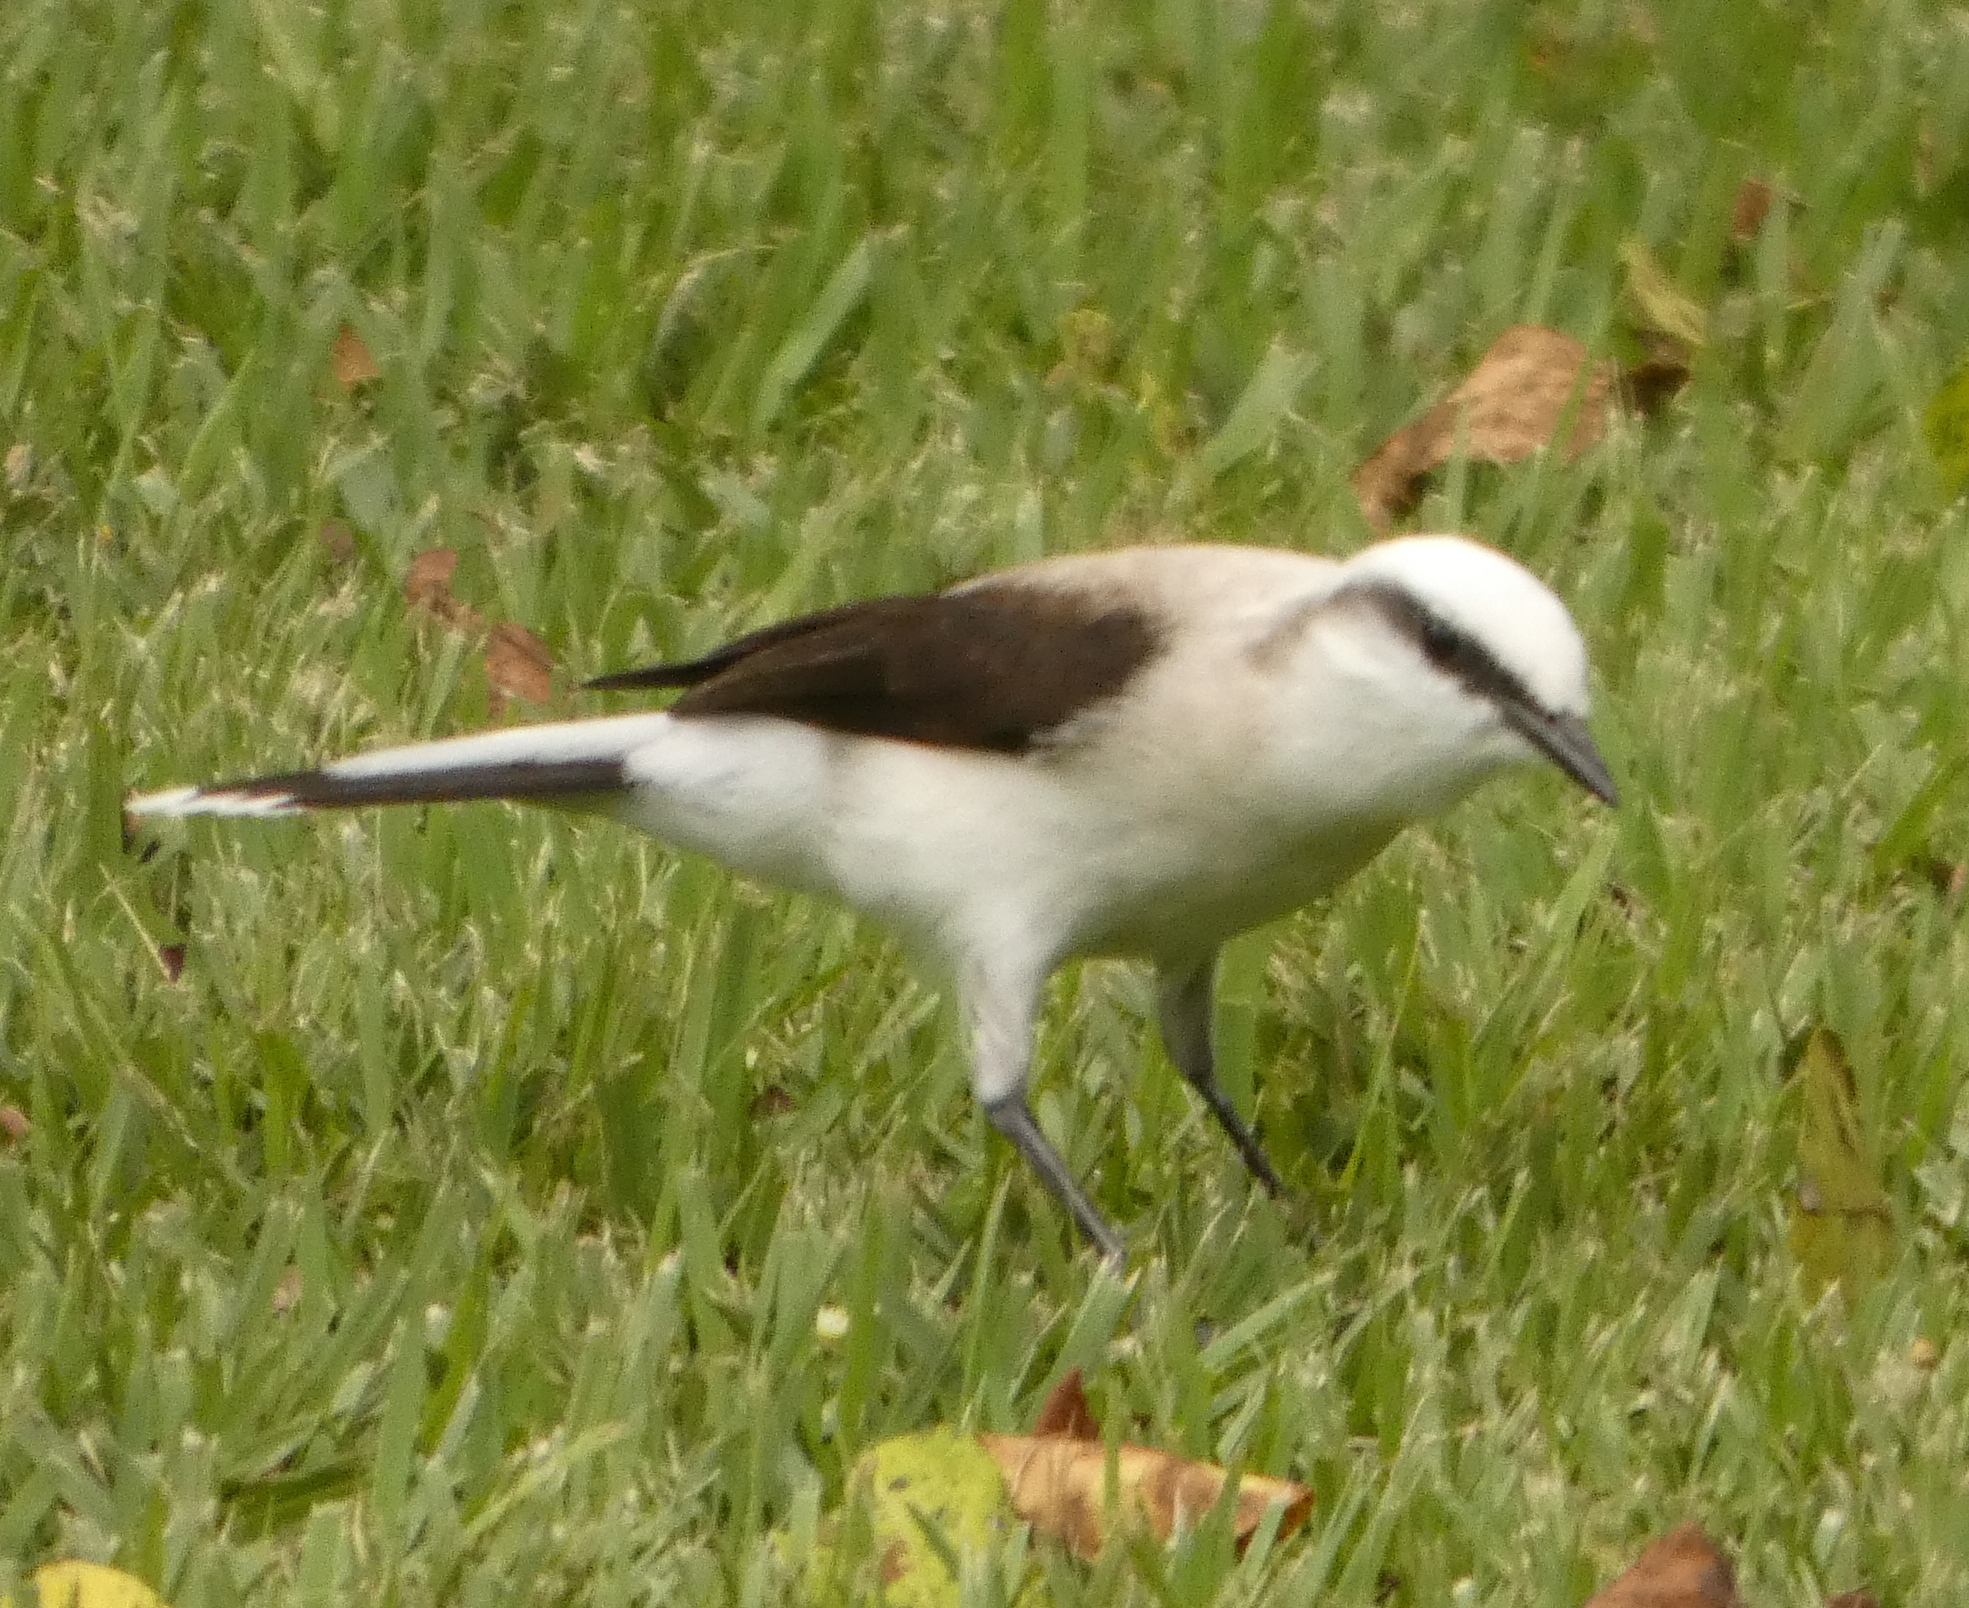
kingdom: Animalia
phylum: Chordata
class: Aves
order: Passeriformes
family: Tyrannidae
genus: Fluvicola
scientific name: Fluvicola nengeta
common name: Masked water tyrant
